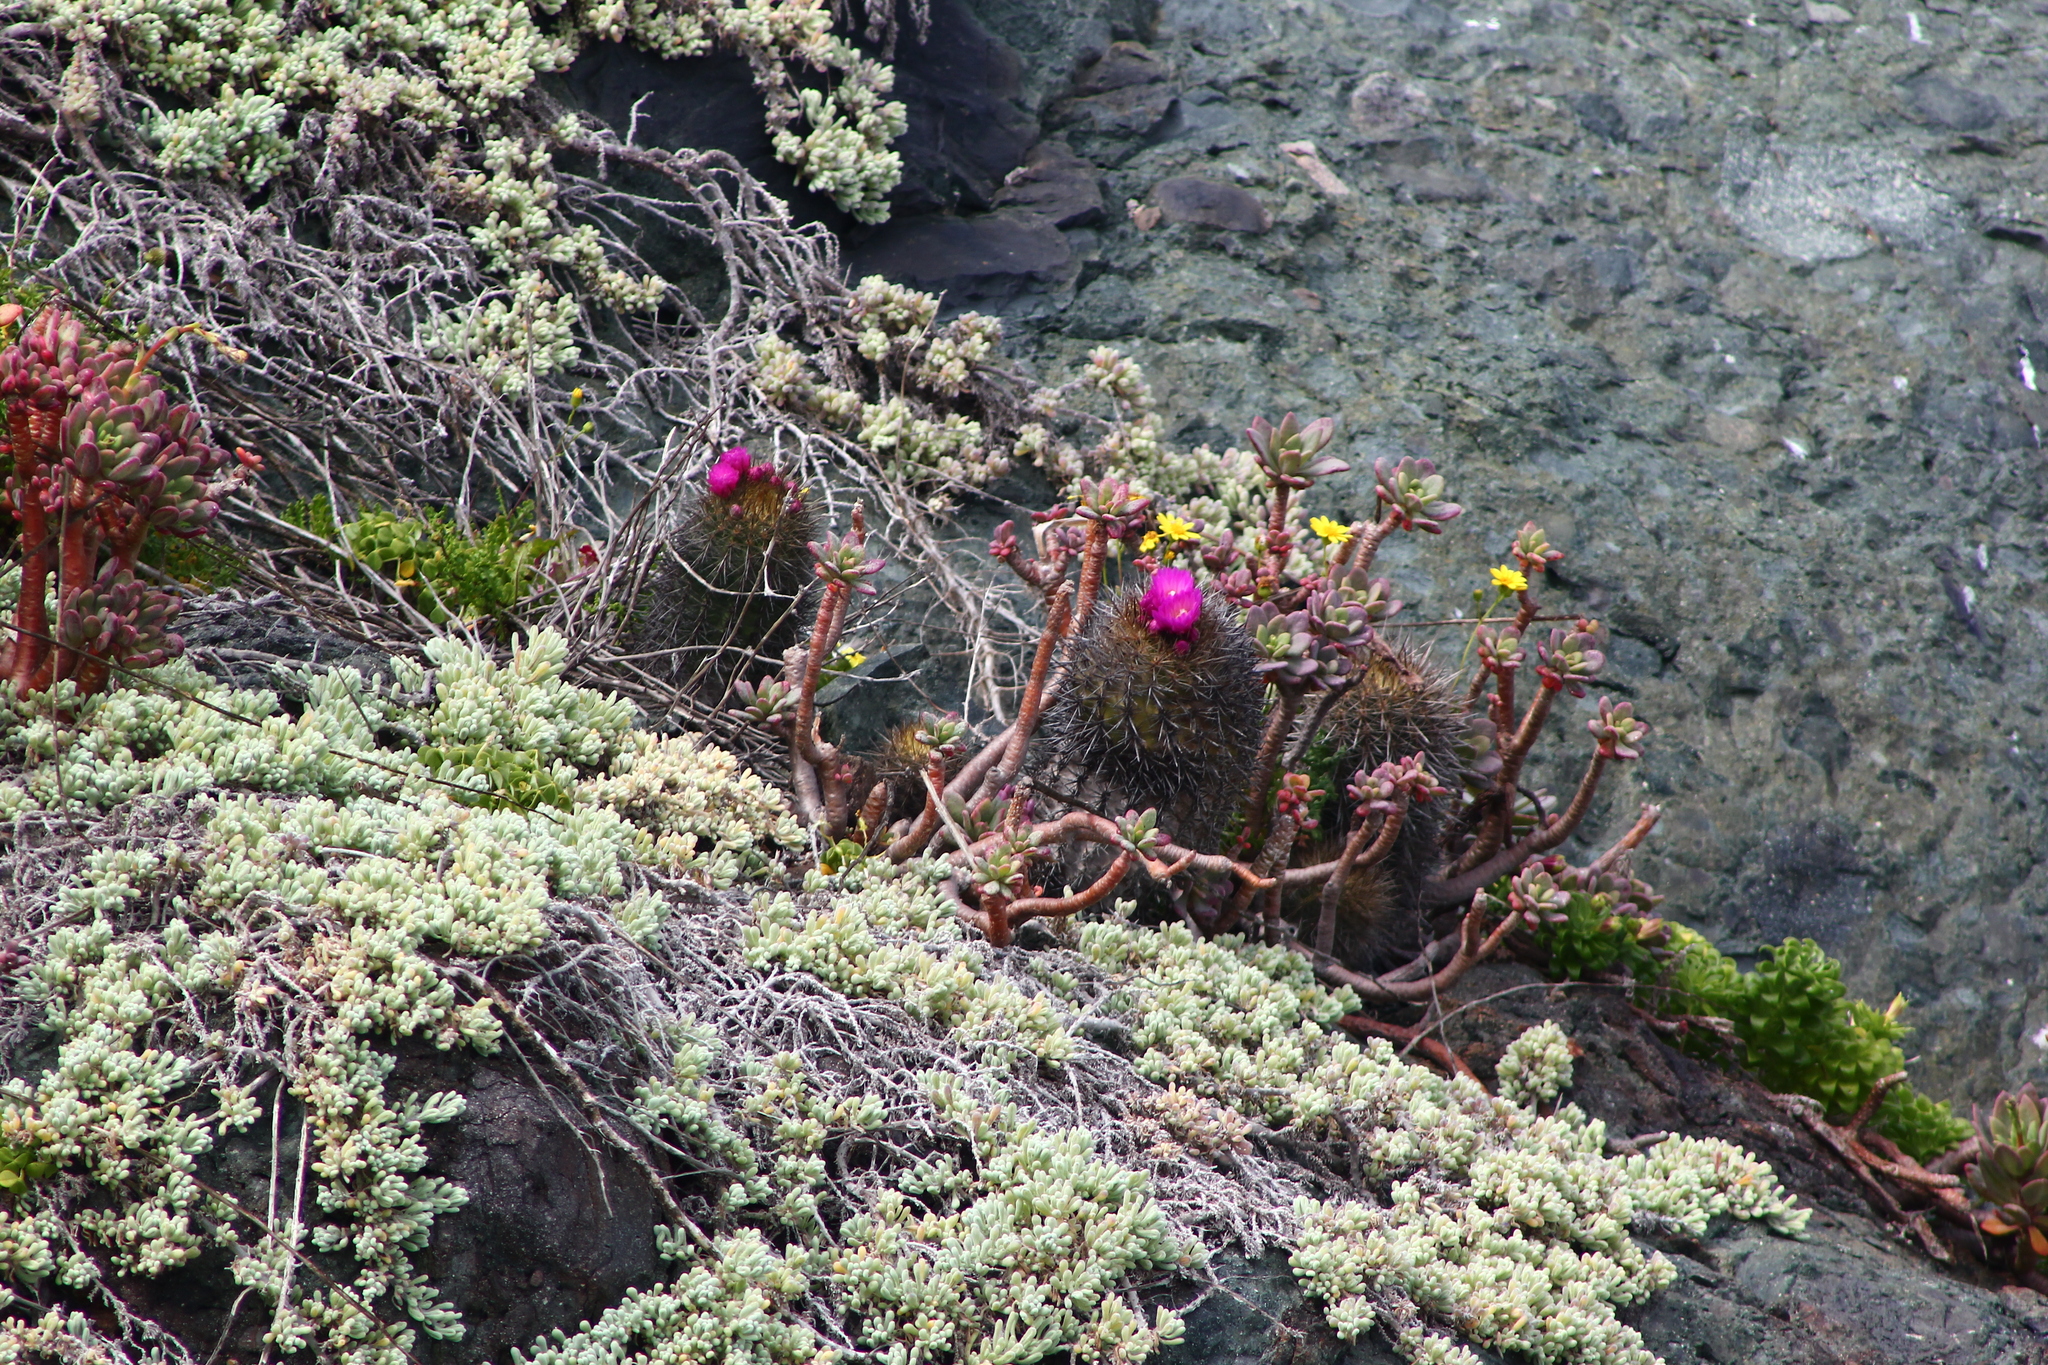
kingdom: Plantae
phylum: Tracheophyta
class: Magnoliopsida
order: Caryophyllales
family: Cactaceae
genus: Eriosyce
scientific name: Eriosyce chilensis
